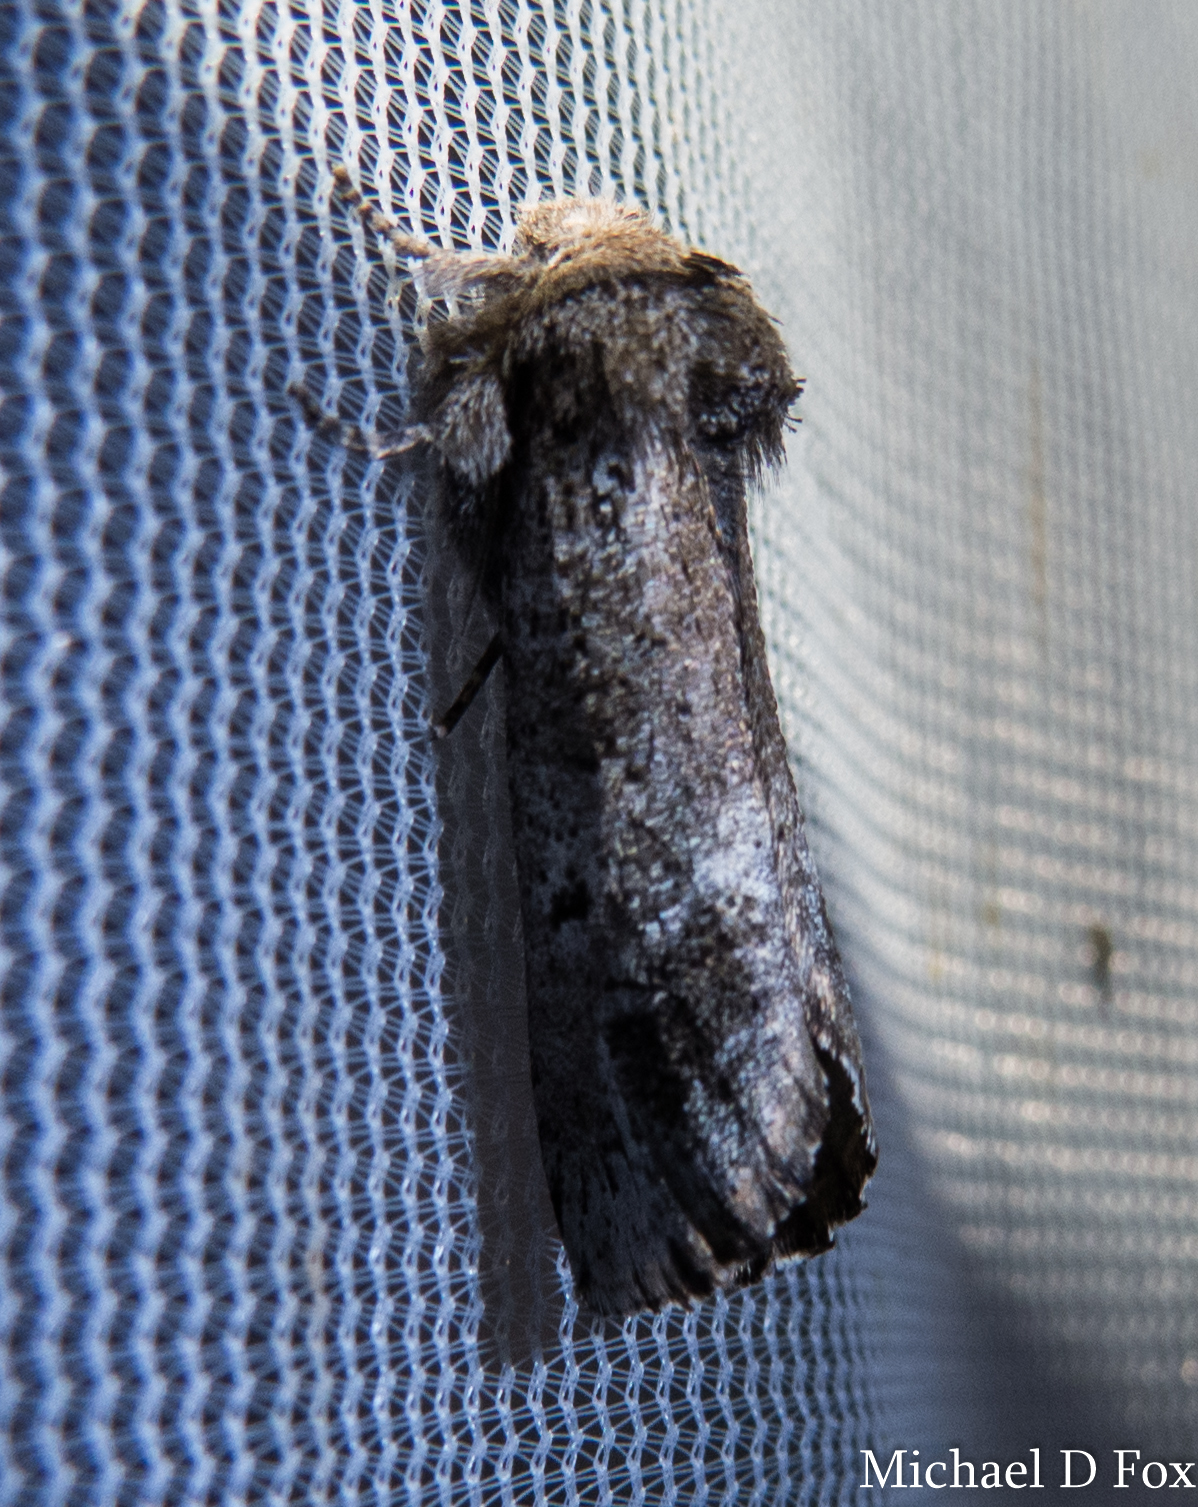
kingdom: Animalia
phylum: Arthropoda
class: Insecta
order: Lepidoptera
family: Erebidae
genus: Aon
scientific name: Aon noctuiformis
